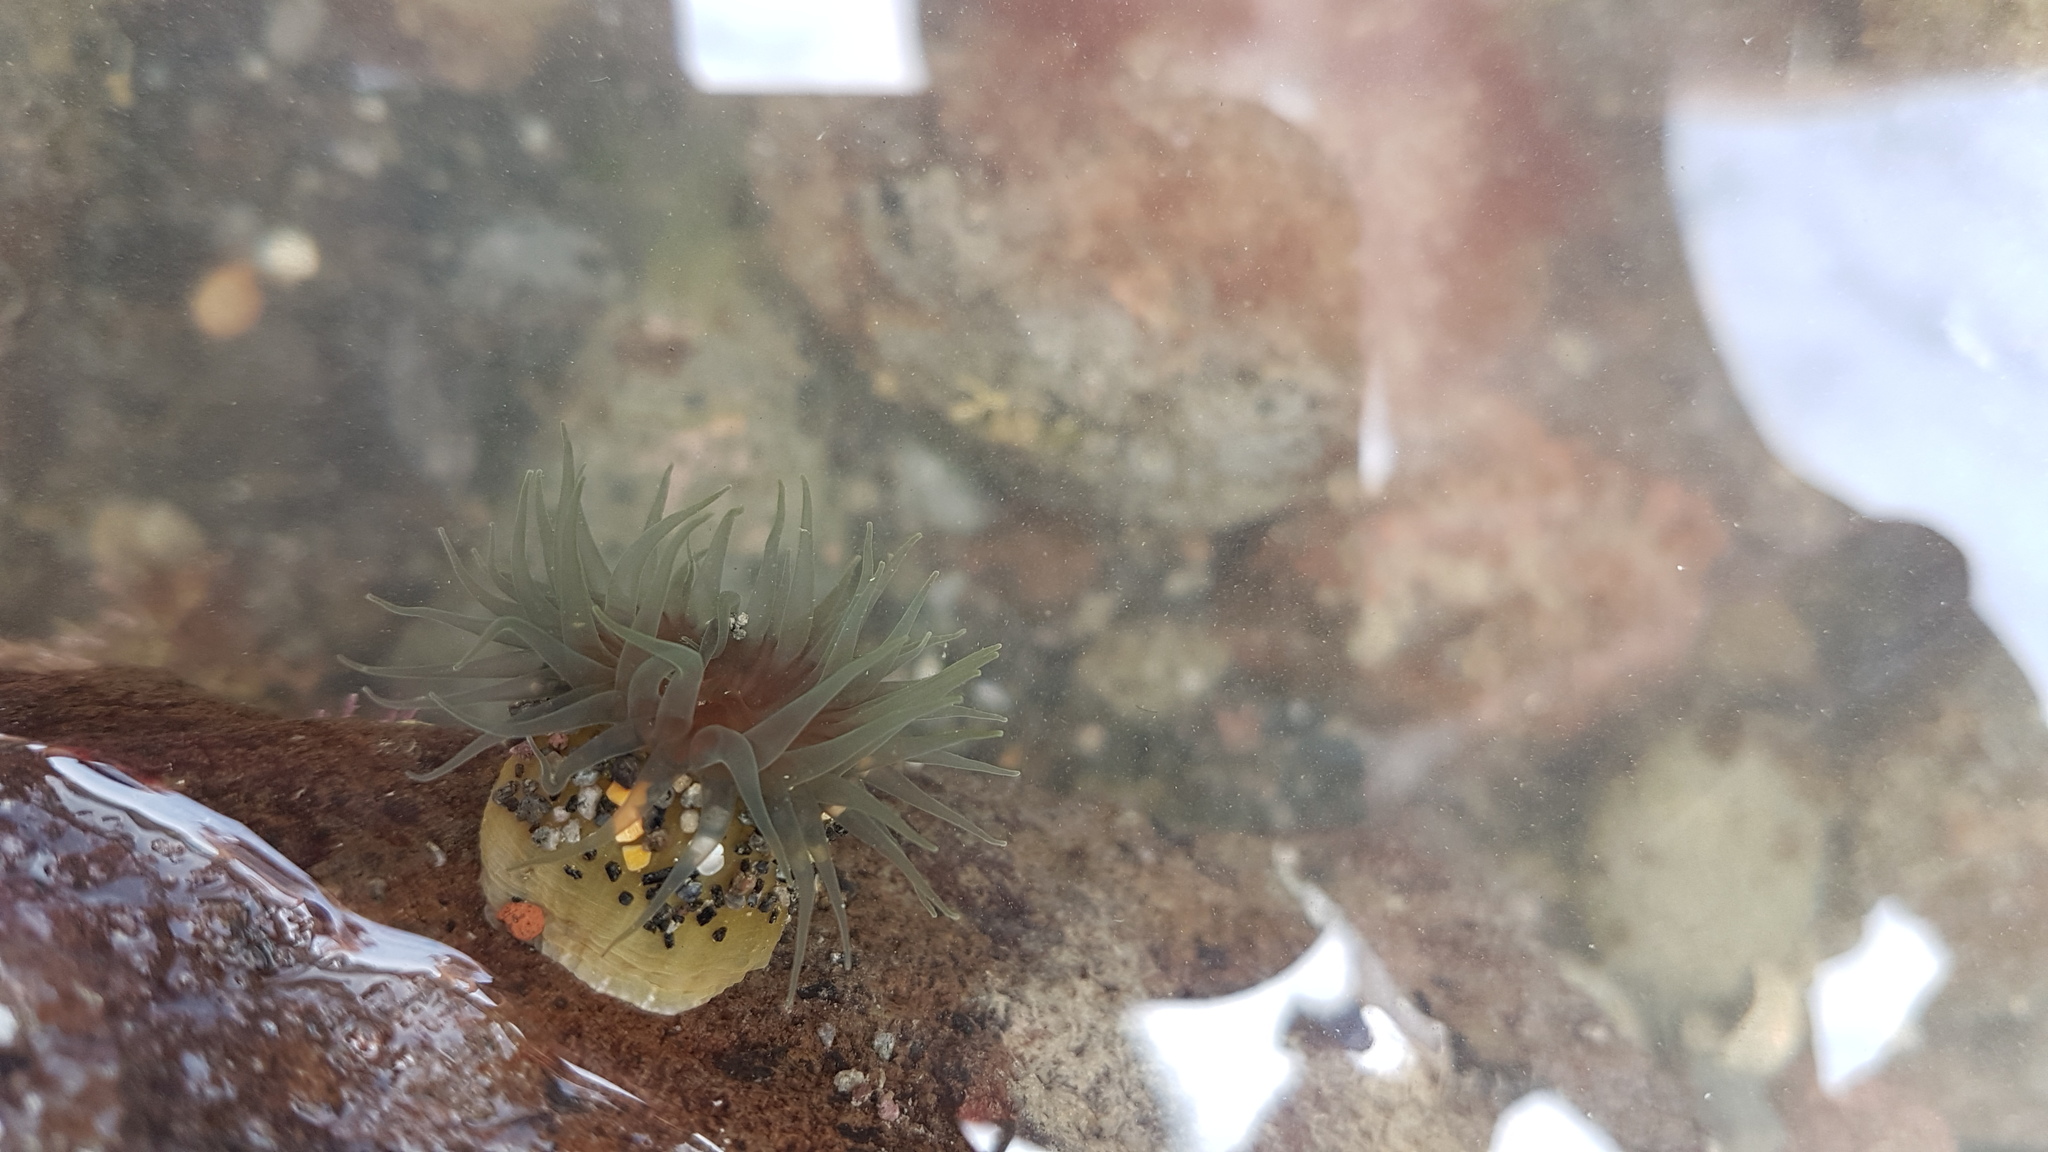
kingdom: Animalia
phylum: Cnidaria
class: Anthozoa
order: Actiniaria
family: Actiniidae
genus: Isactinia
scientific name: Isactinia olivacea
